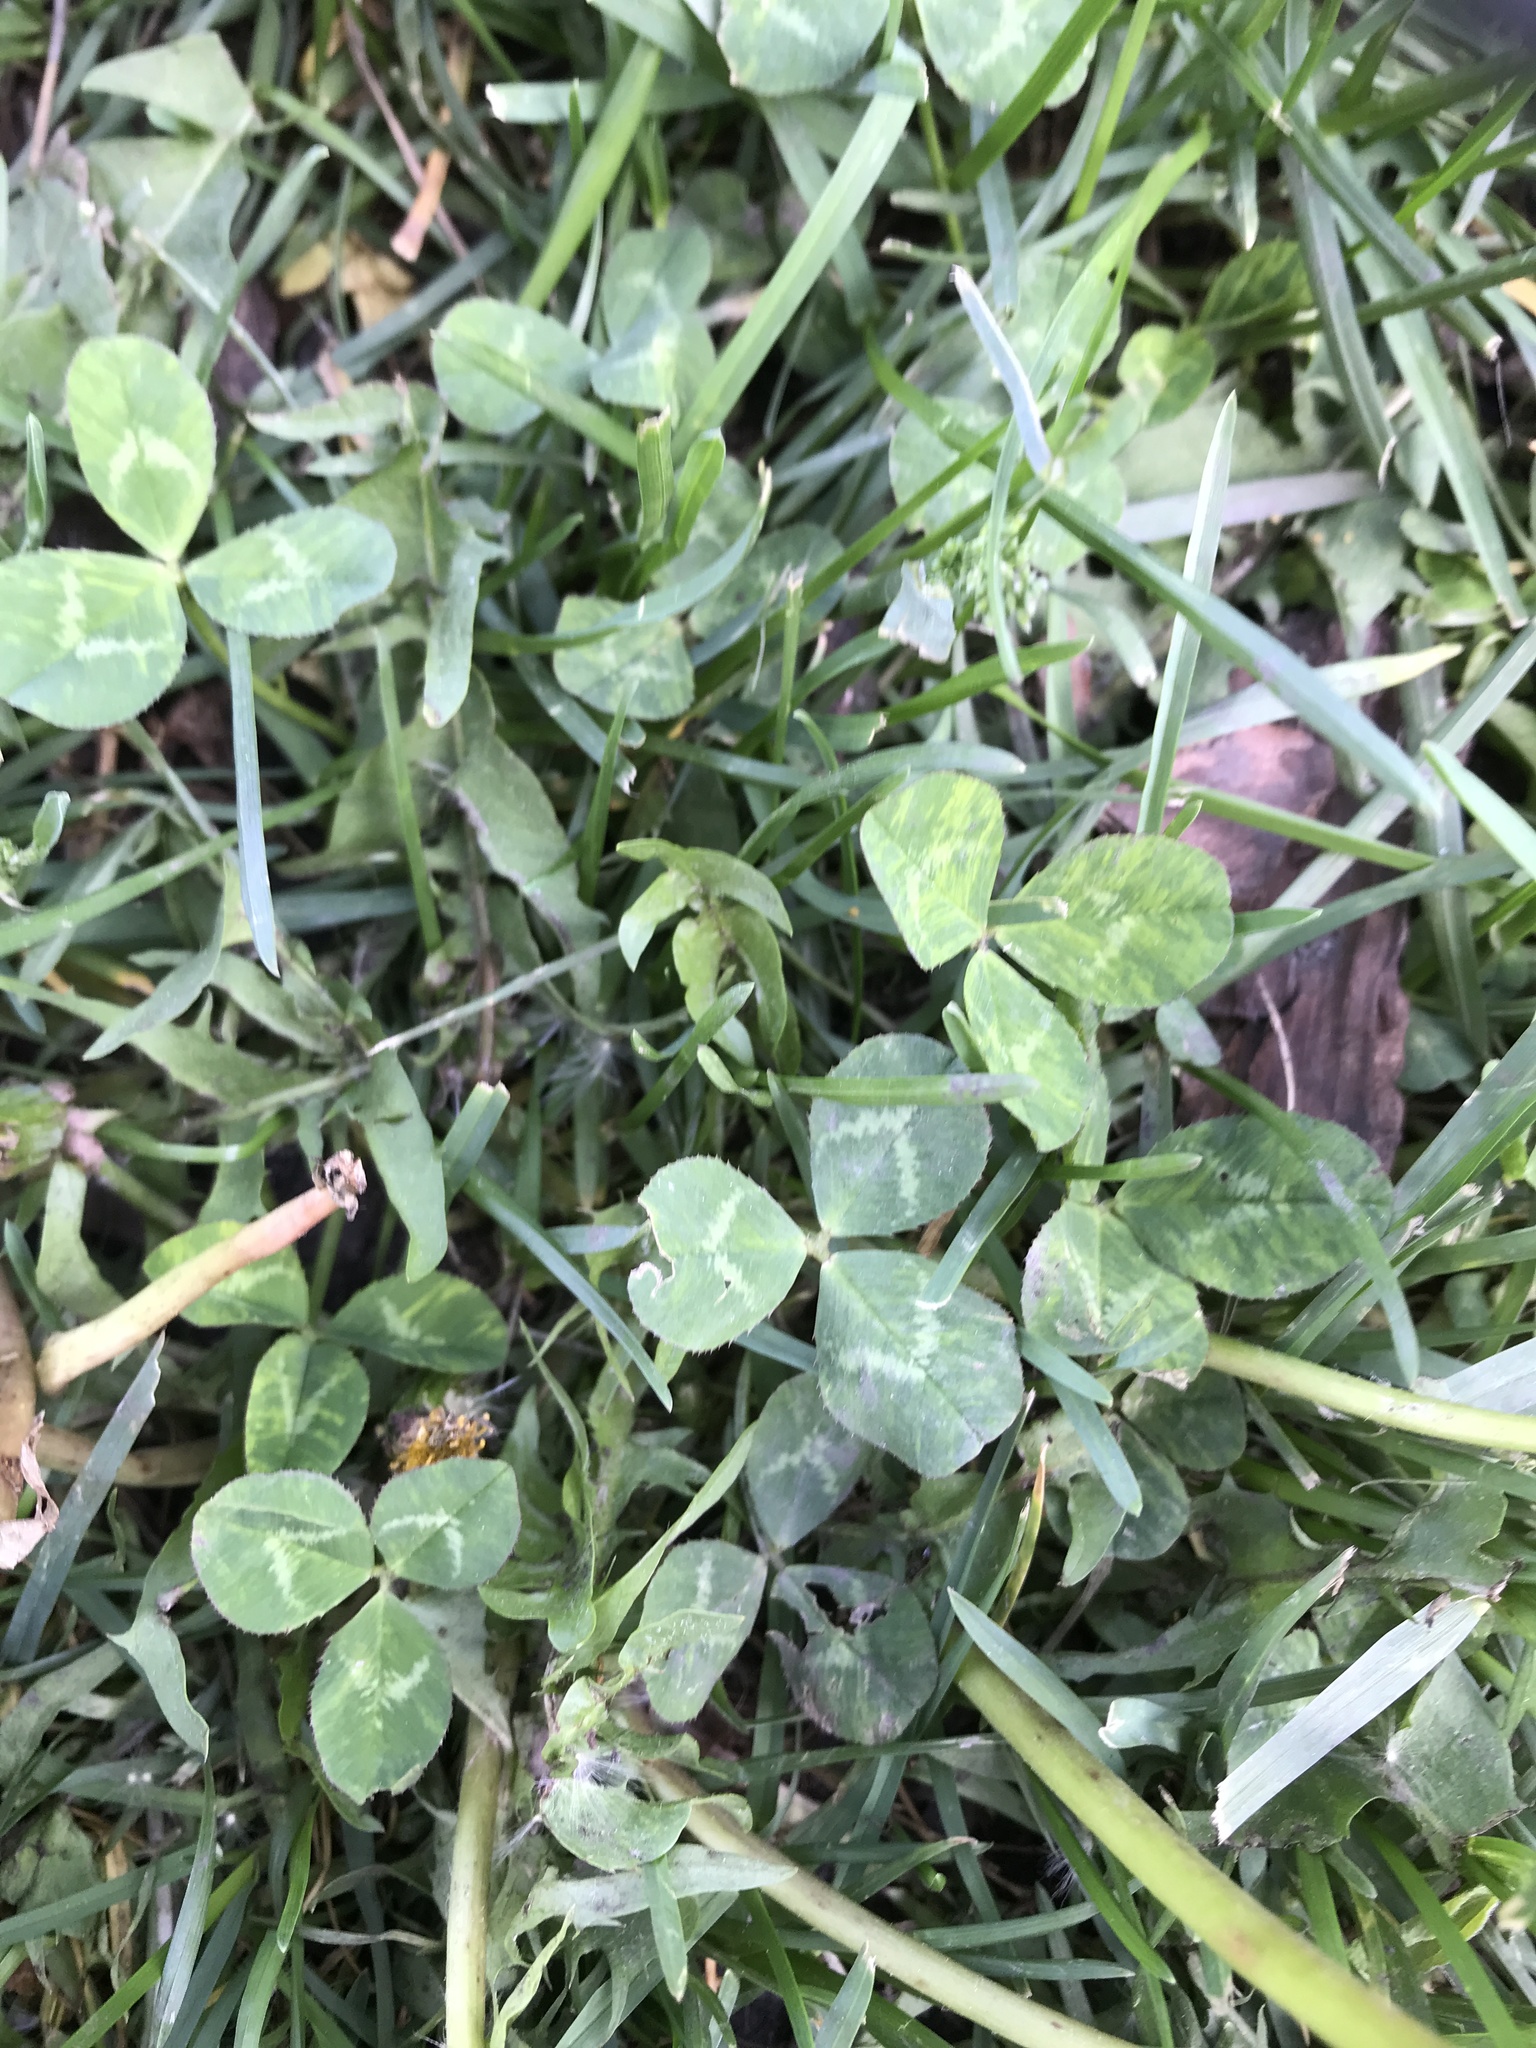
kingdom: Plantae
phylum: Tracheophyta
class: Magnoliopsida
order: Fabales
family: Fabaceae
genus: Trifolium
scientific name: Trifolium repens
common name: White clover
